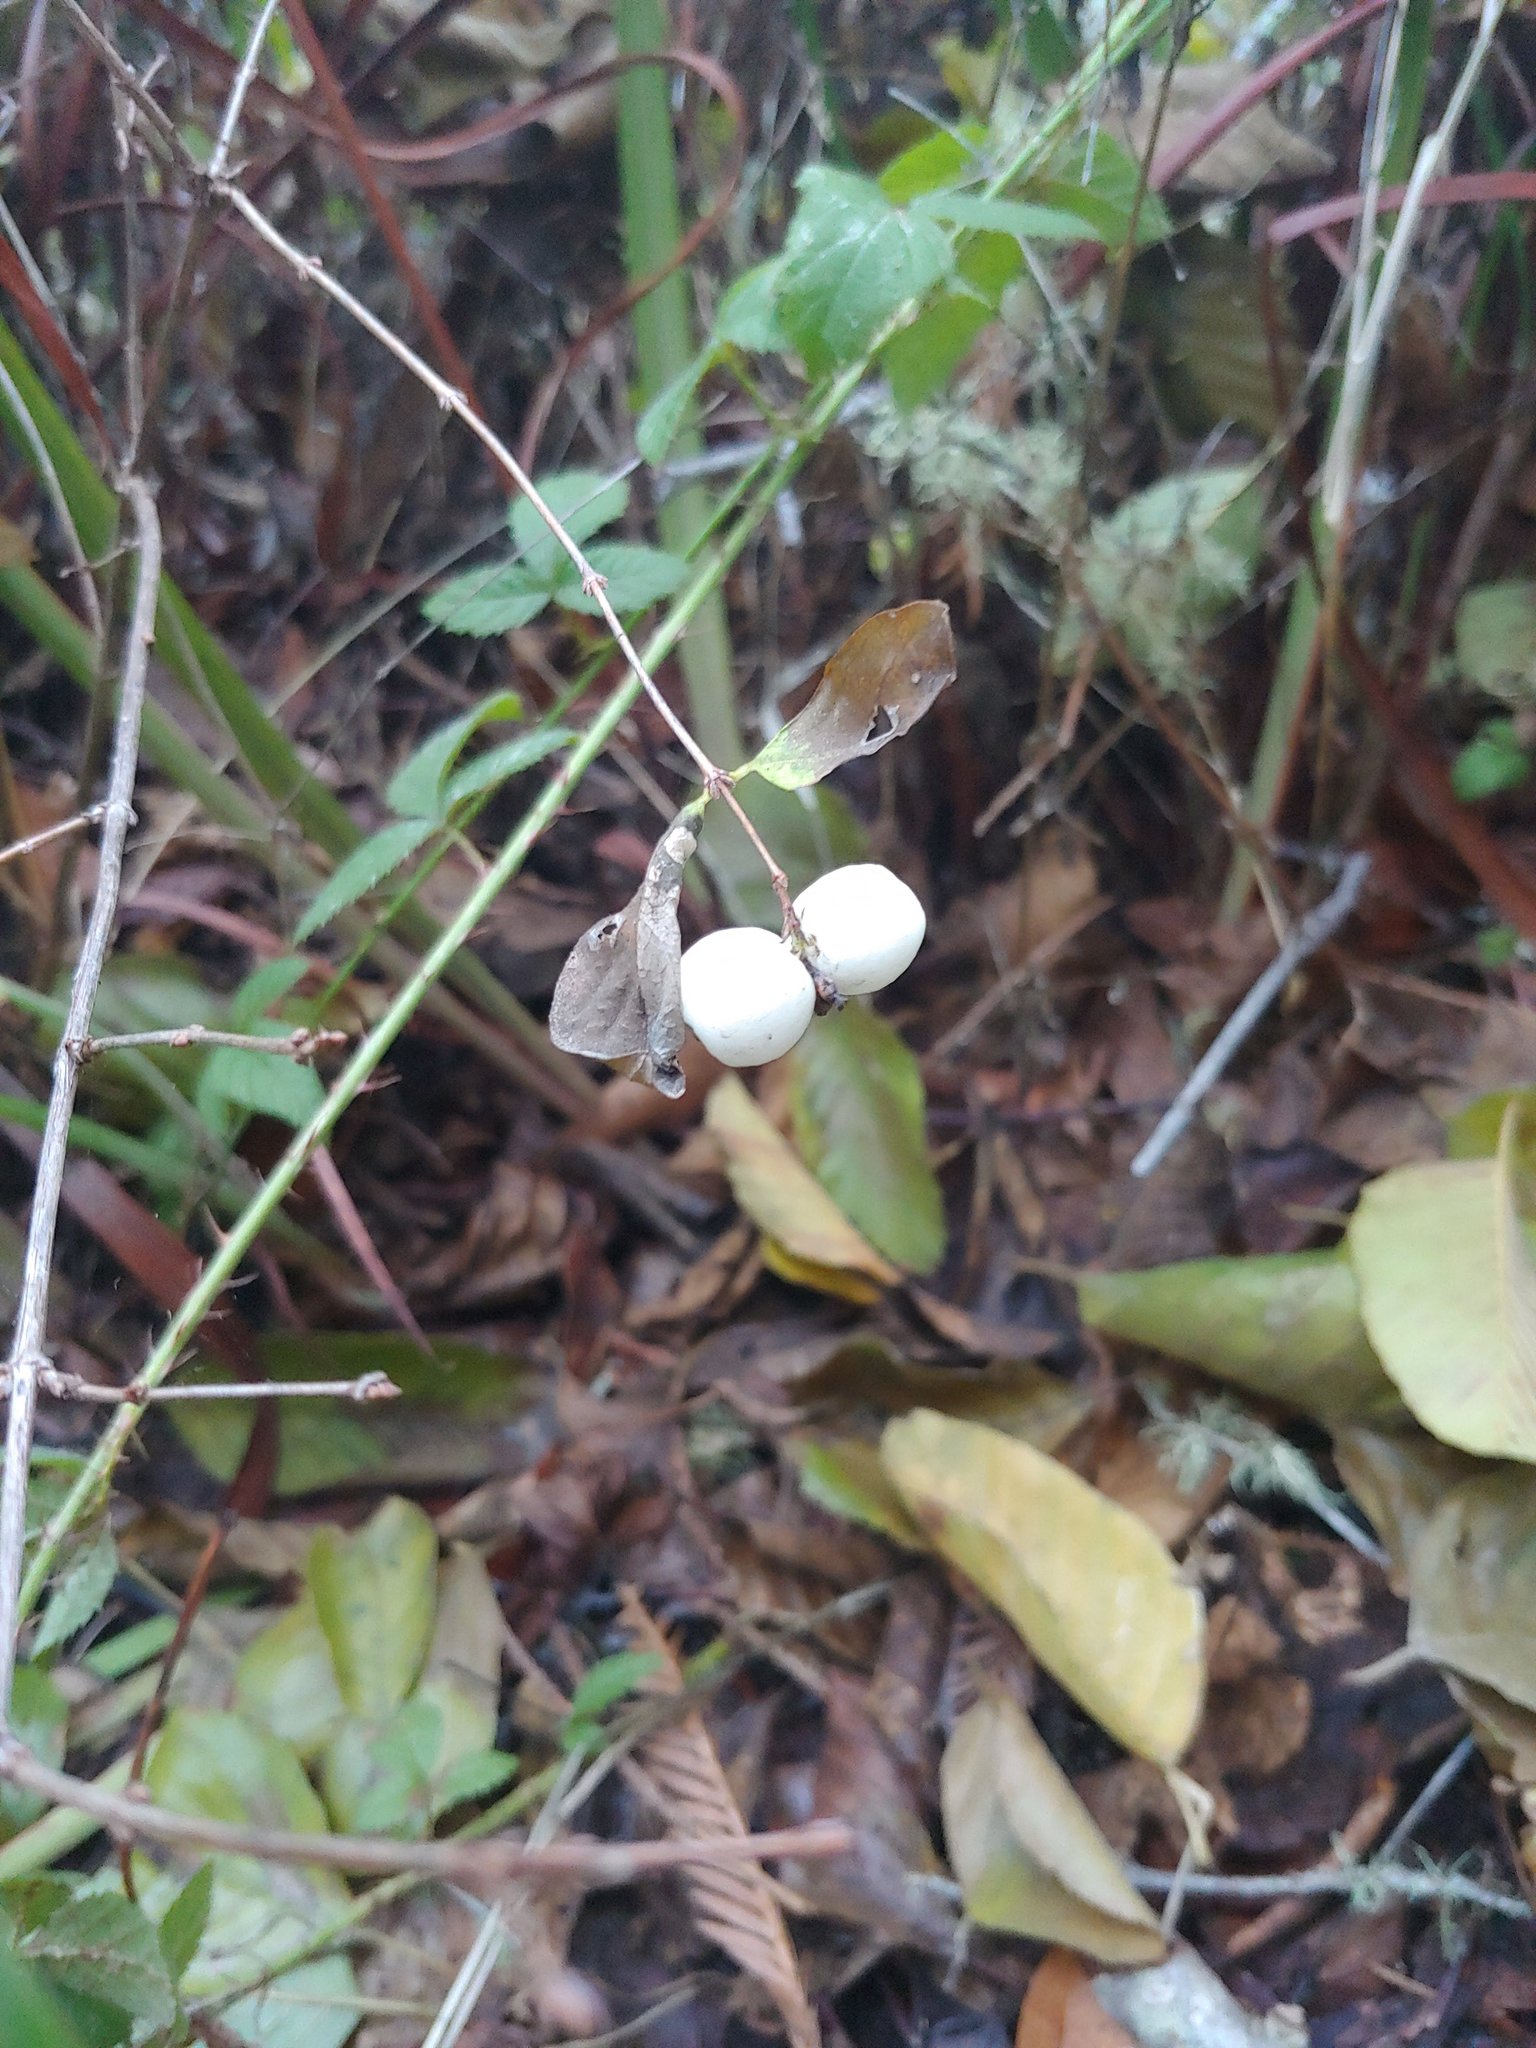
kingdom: Plantae
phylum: Tracheophyta
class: Magnoliopsida
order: Dipsacales
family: Caprifoliaceae
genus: Symphoricarpos
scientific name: Symphoricarpos albus
